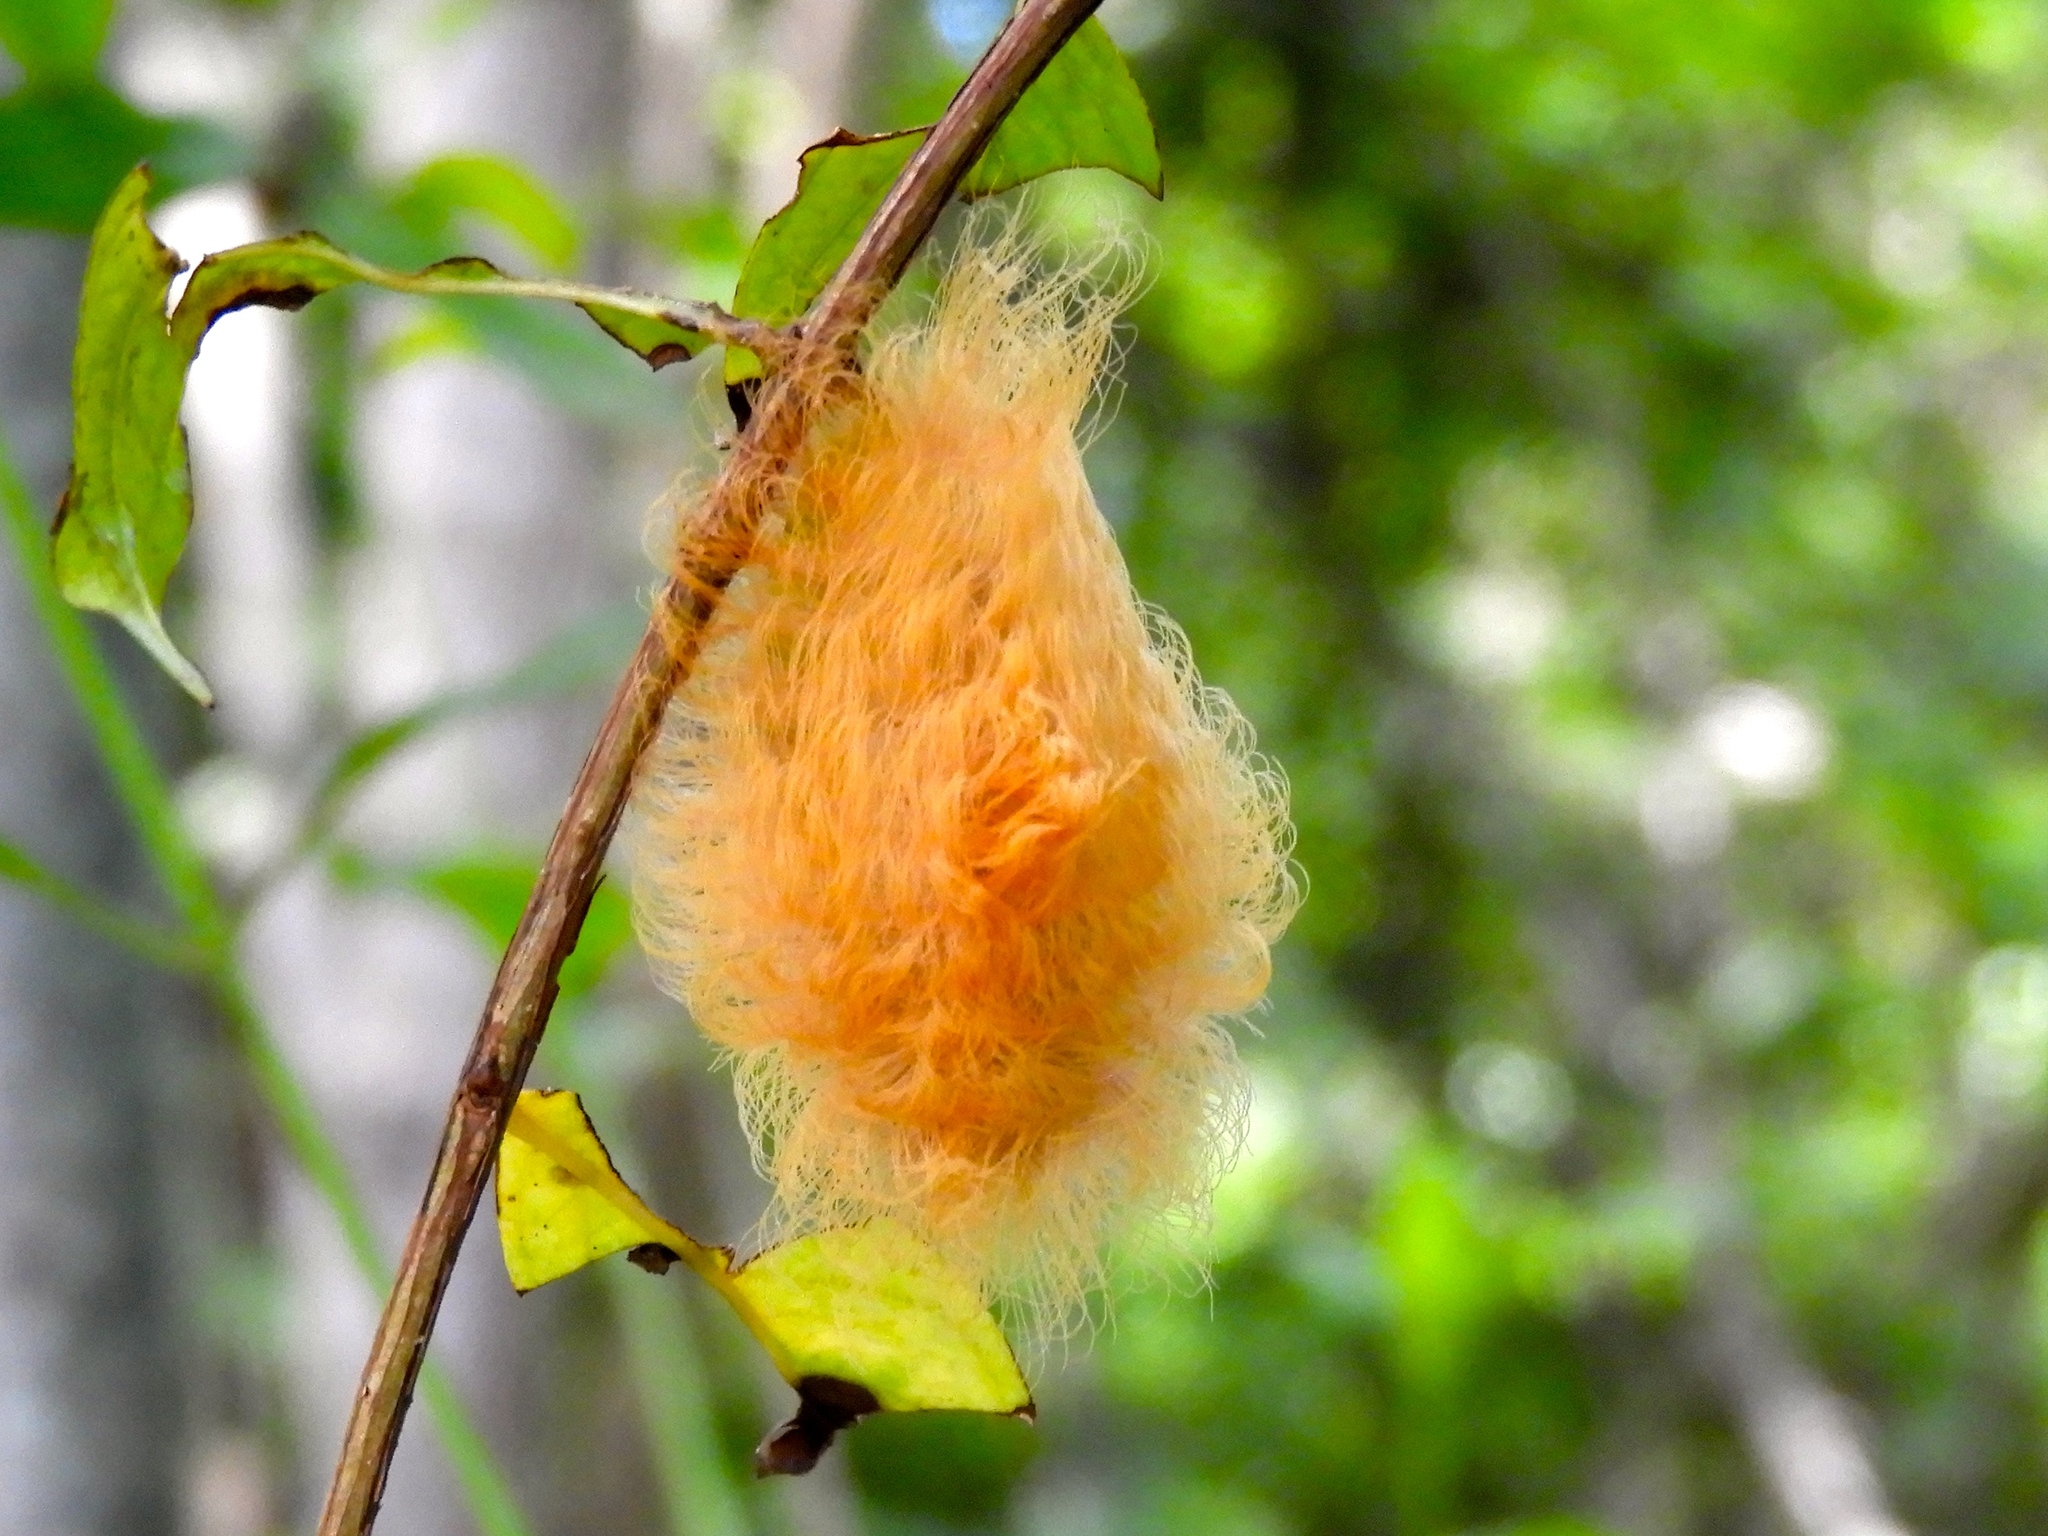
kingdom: Animalia
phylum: Arthropoda
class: Insecta
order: Lepidoptera
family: Megalopygidae
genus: Megalopyge
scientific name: Megalopyge
